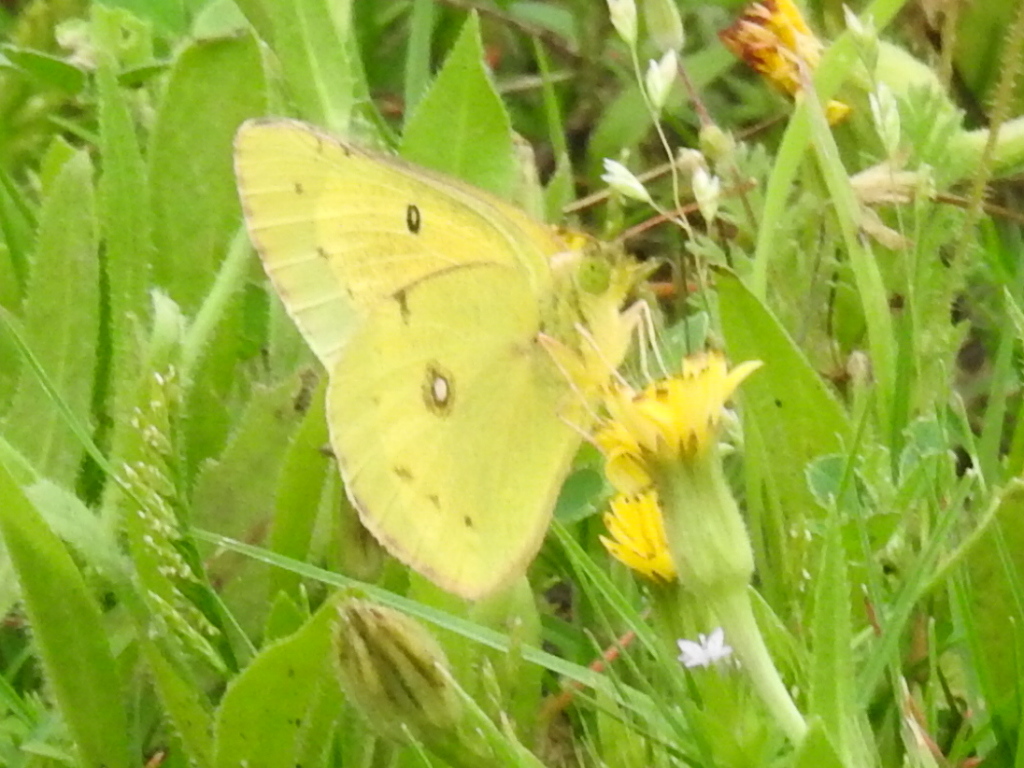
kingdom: Animalia
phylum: Arthropoda
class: Insecta
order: Lepidoptera
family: Pieridae
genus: Colias
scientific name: Colias eurytheme
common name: Alfalfa butterfly
